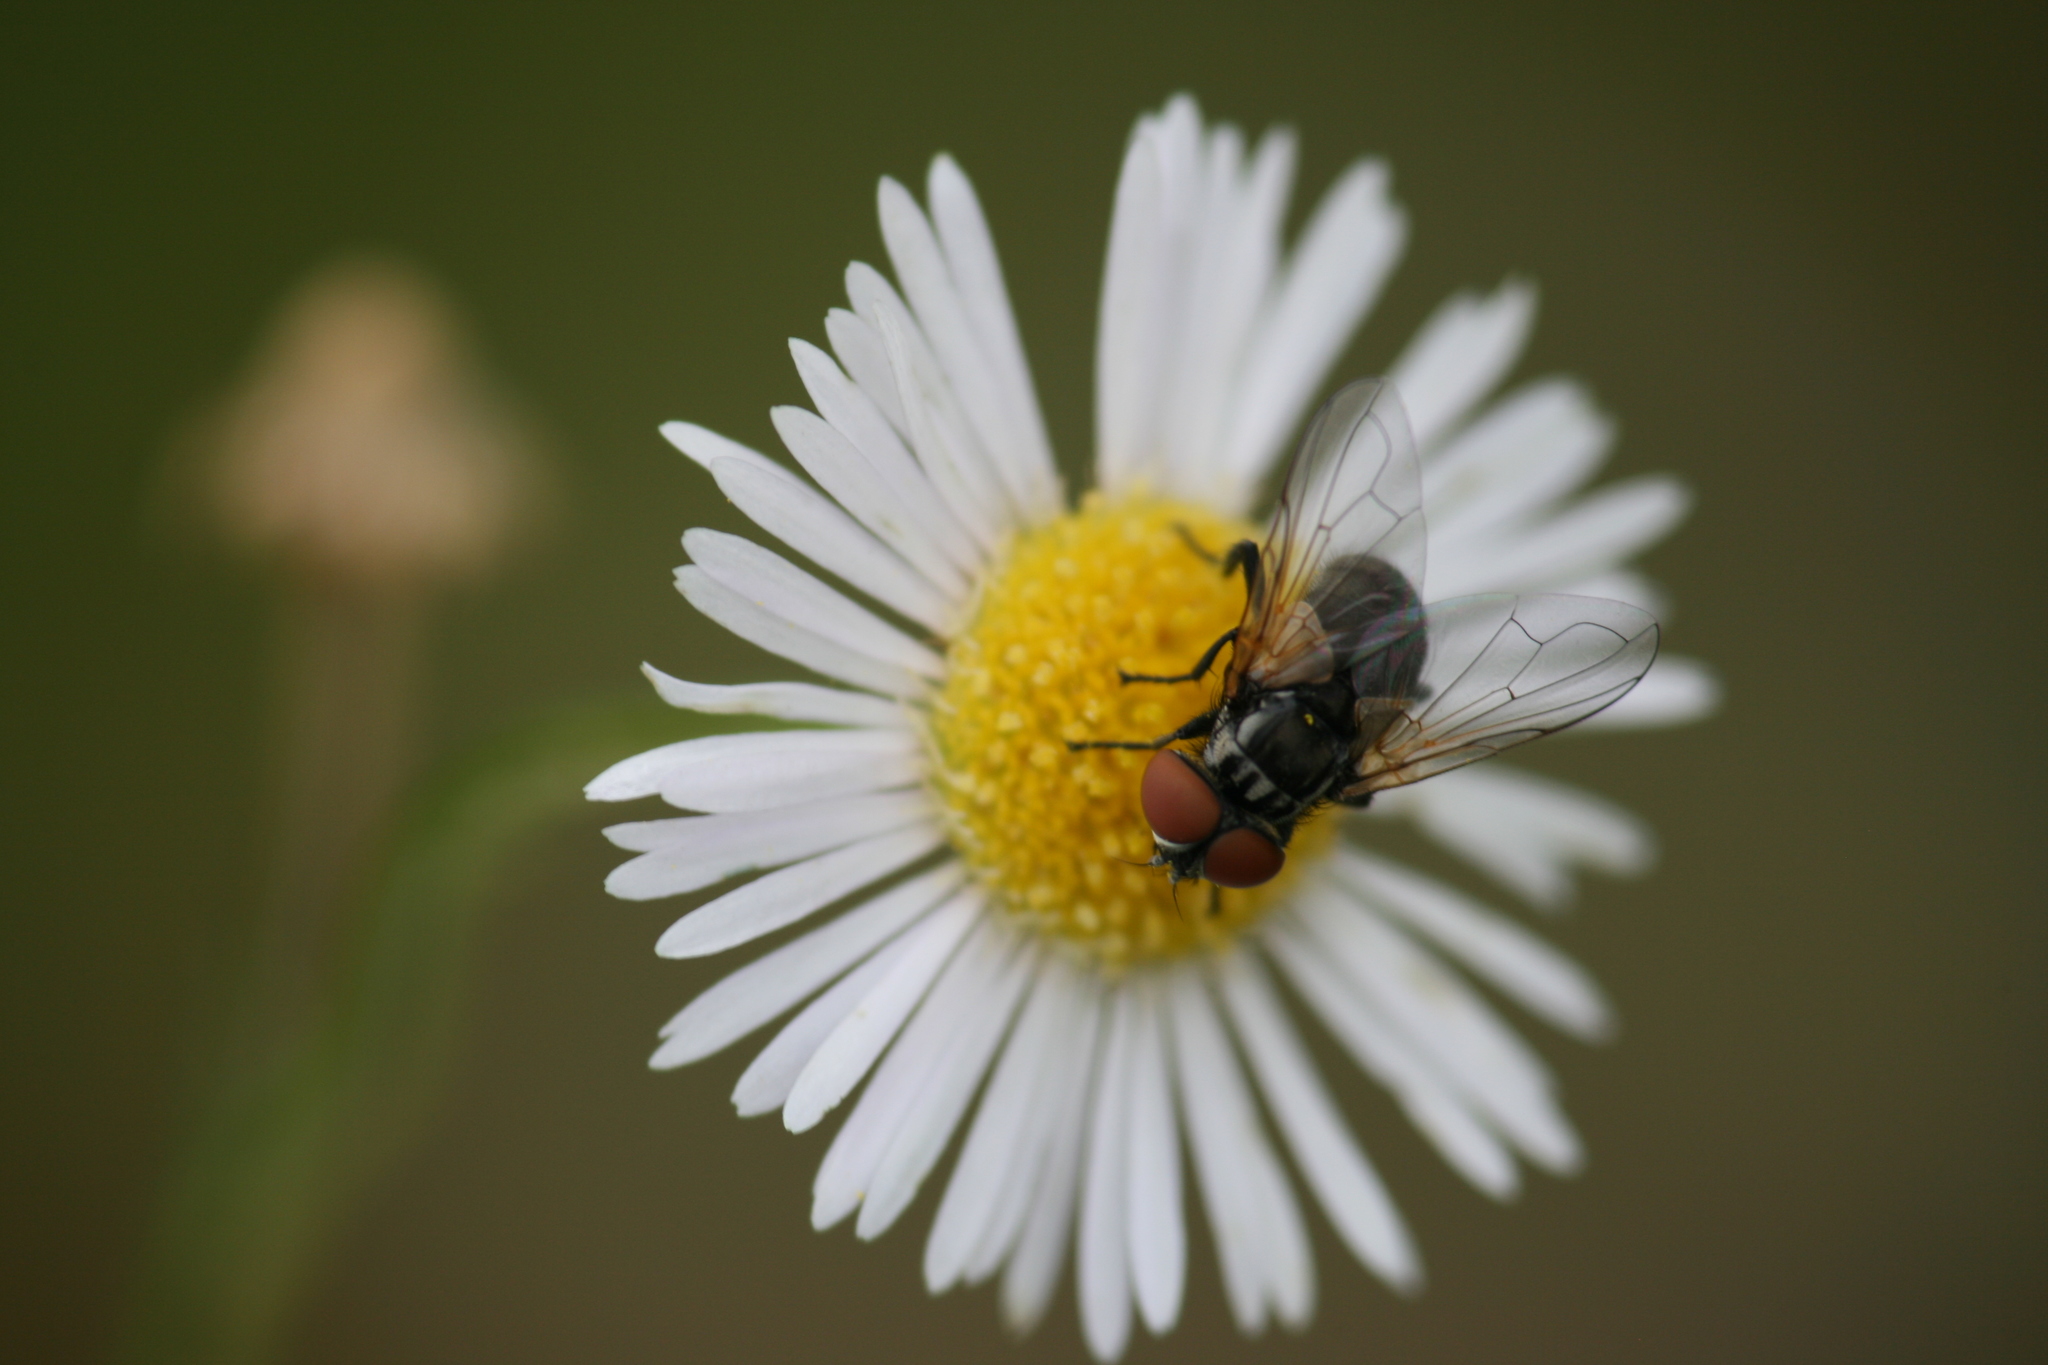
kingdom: Animalia
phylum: Arthropoda
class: Insecta
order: Diptera
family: Tachinidae
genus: Phasia
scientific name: Phasia obesa
